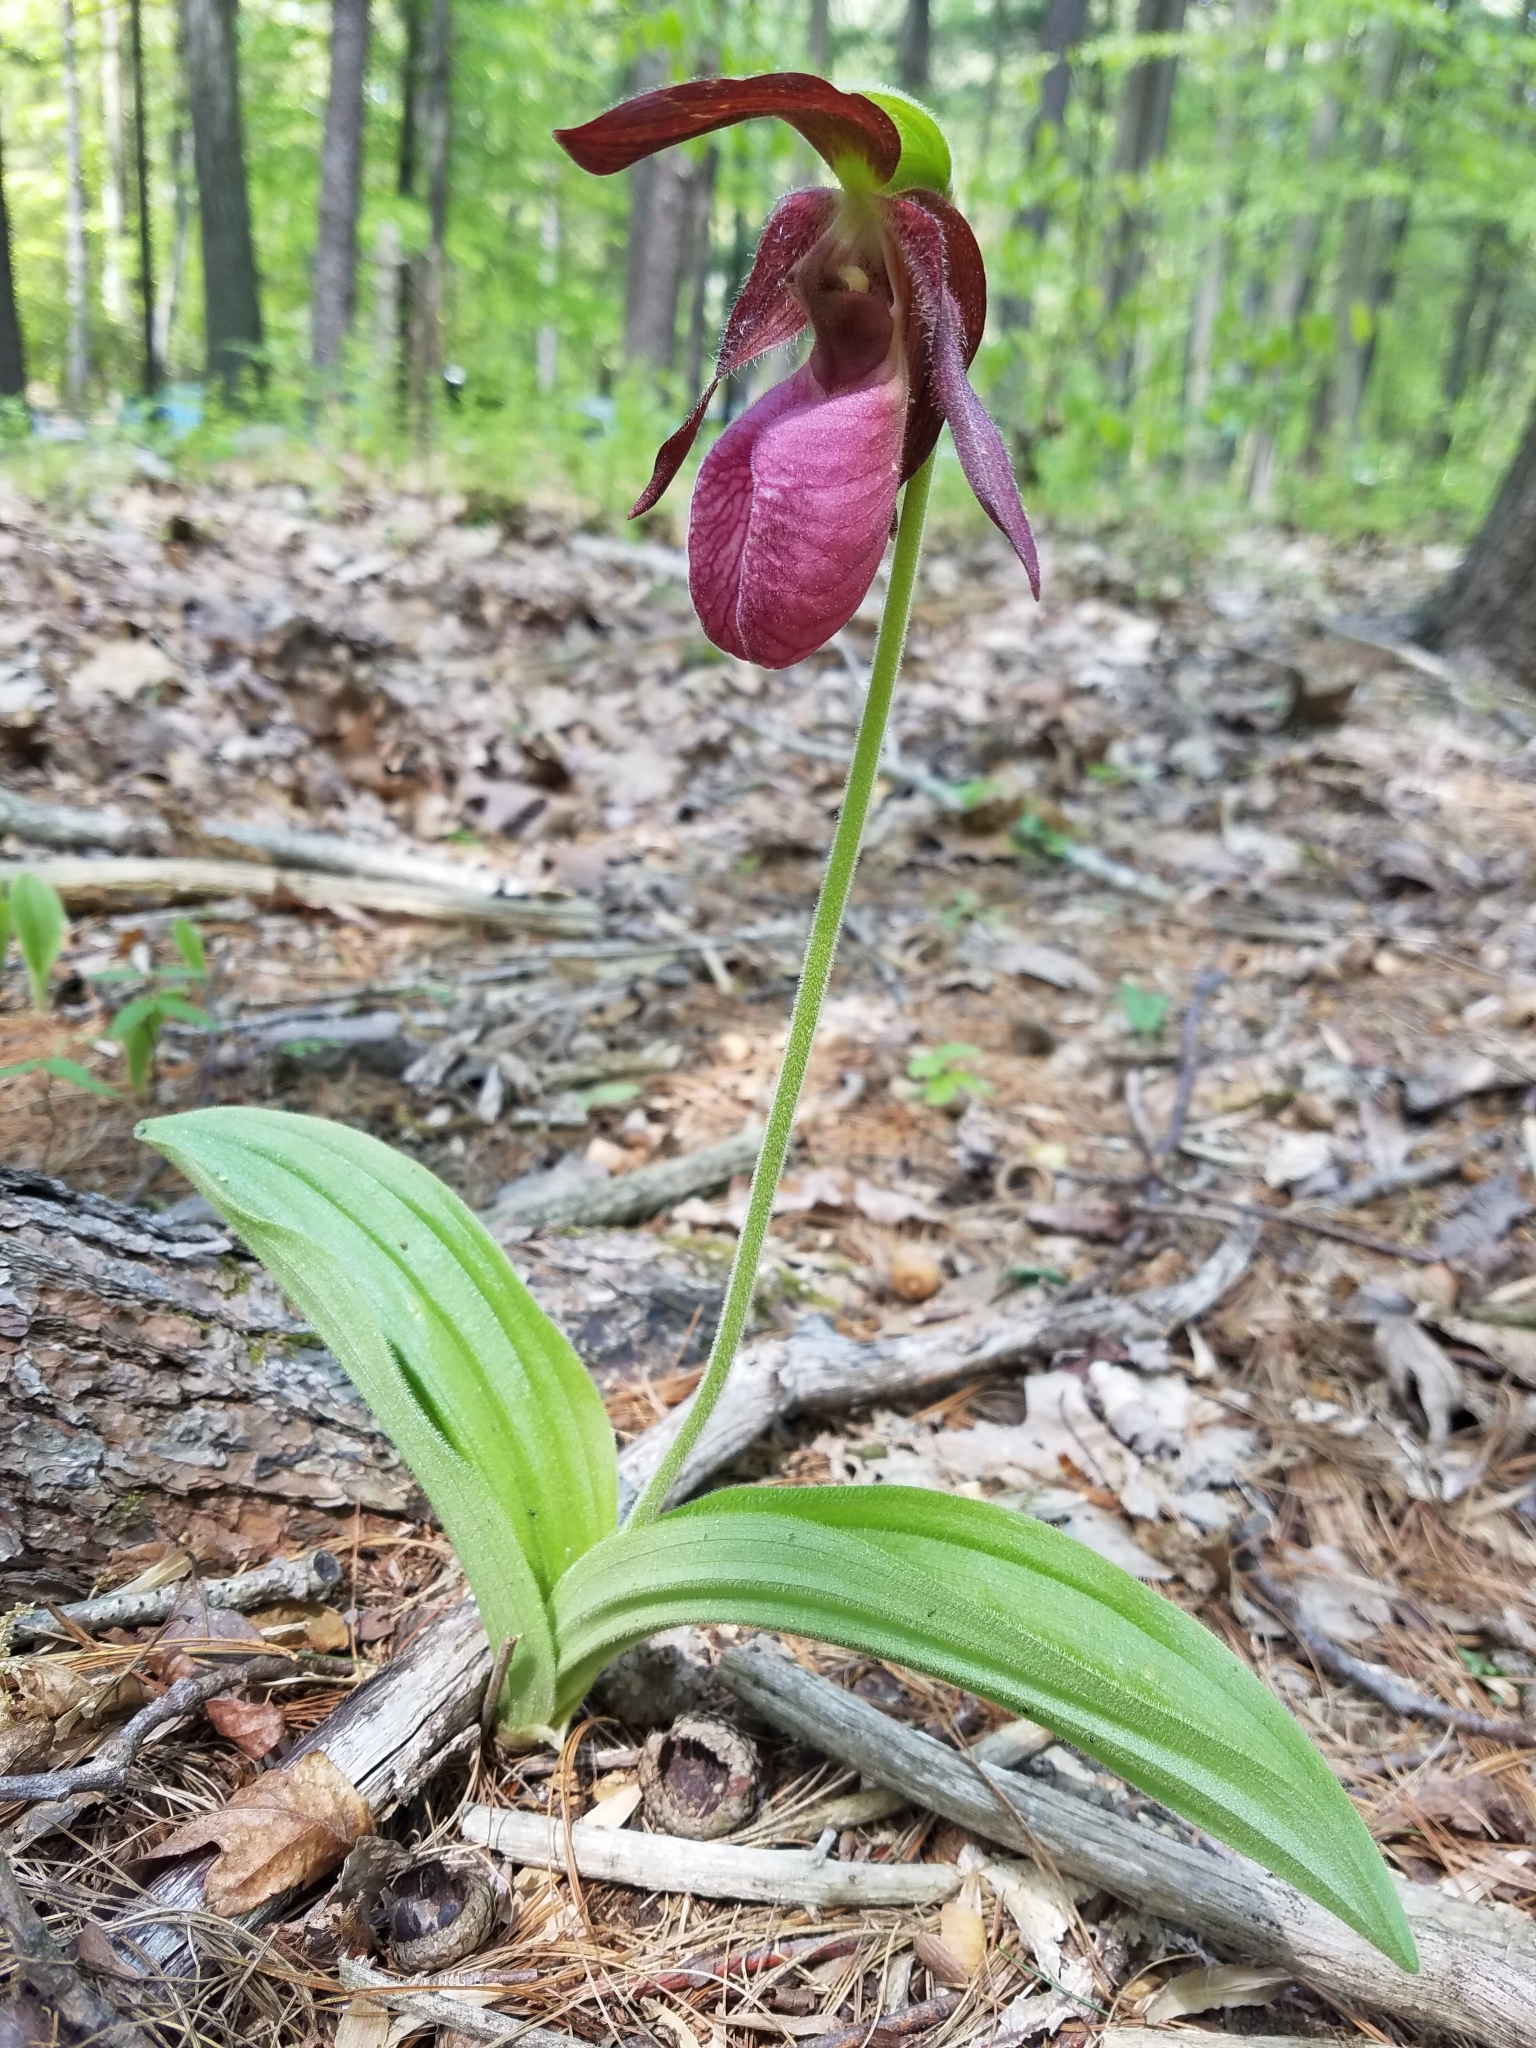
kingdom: Plantae
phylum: Tracheophyta
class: Liliopsida
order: Asparagales
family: Orchidaceae
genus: Cypripedium
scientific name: Cypripedium acaule
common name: Pink lady's-slipper
